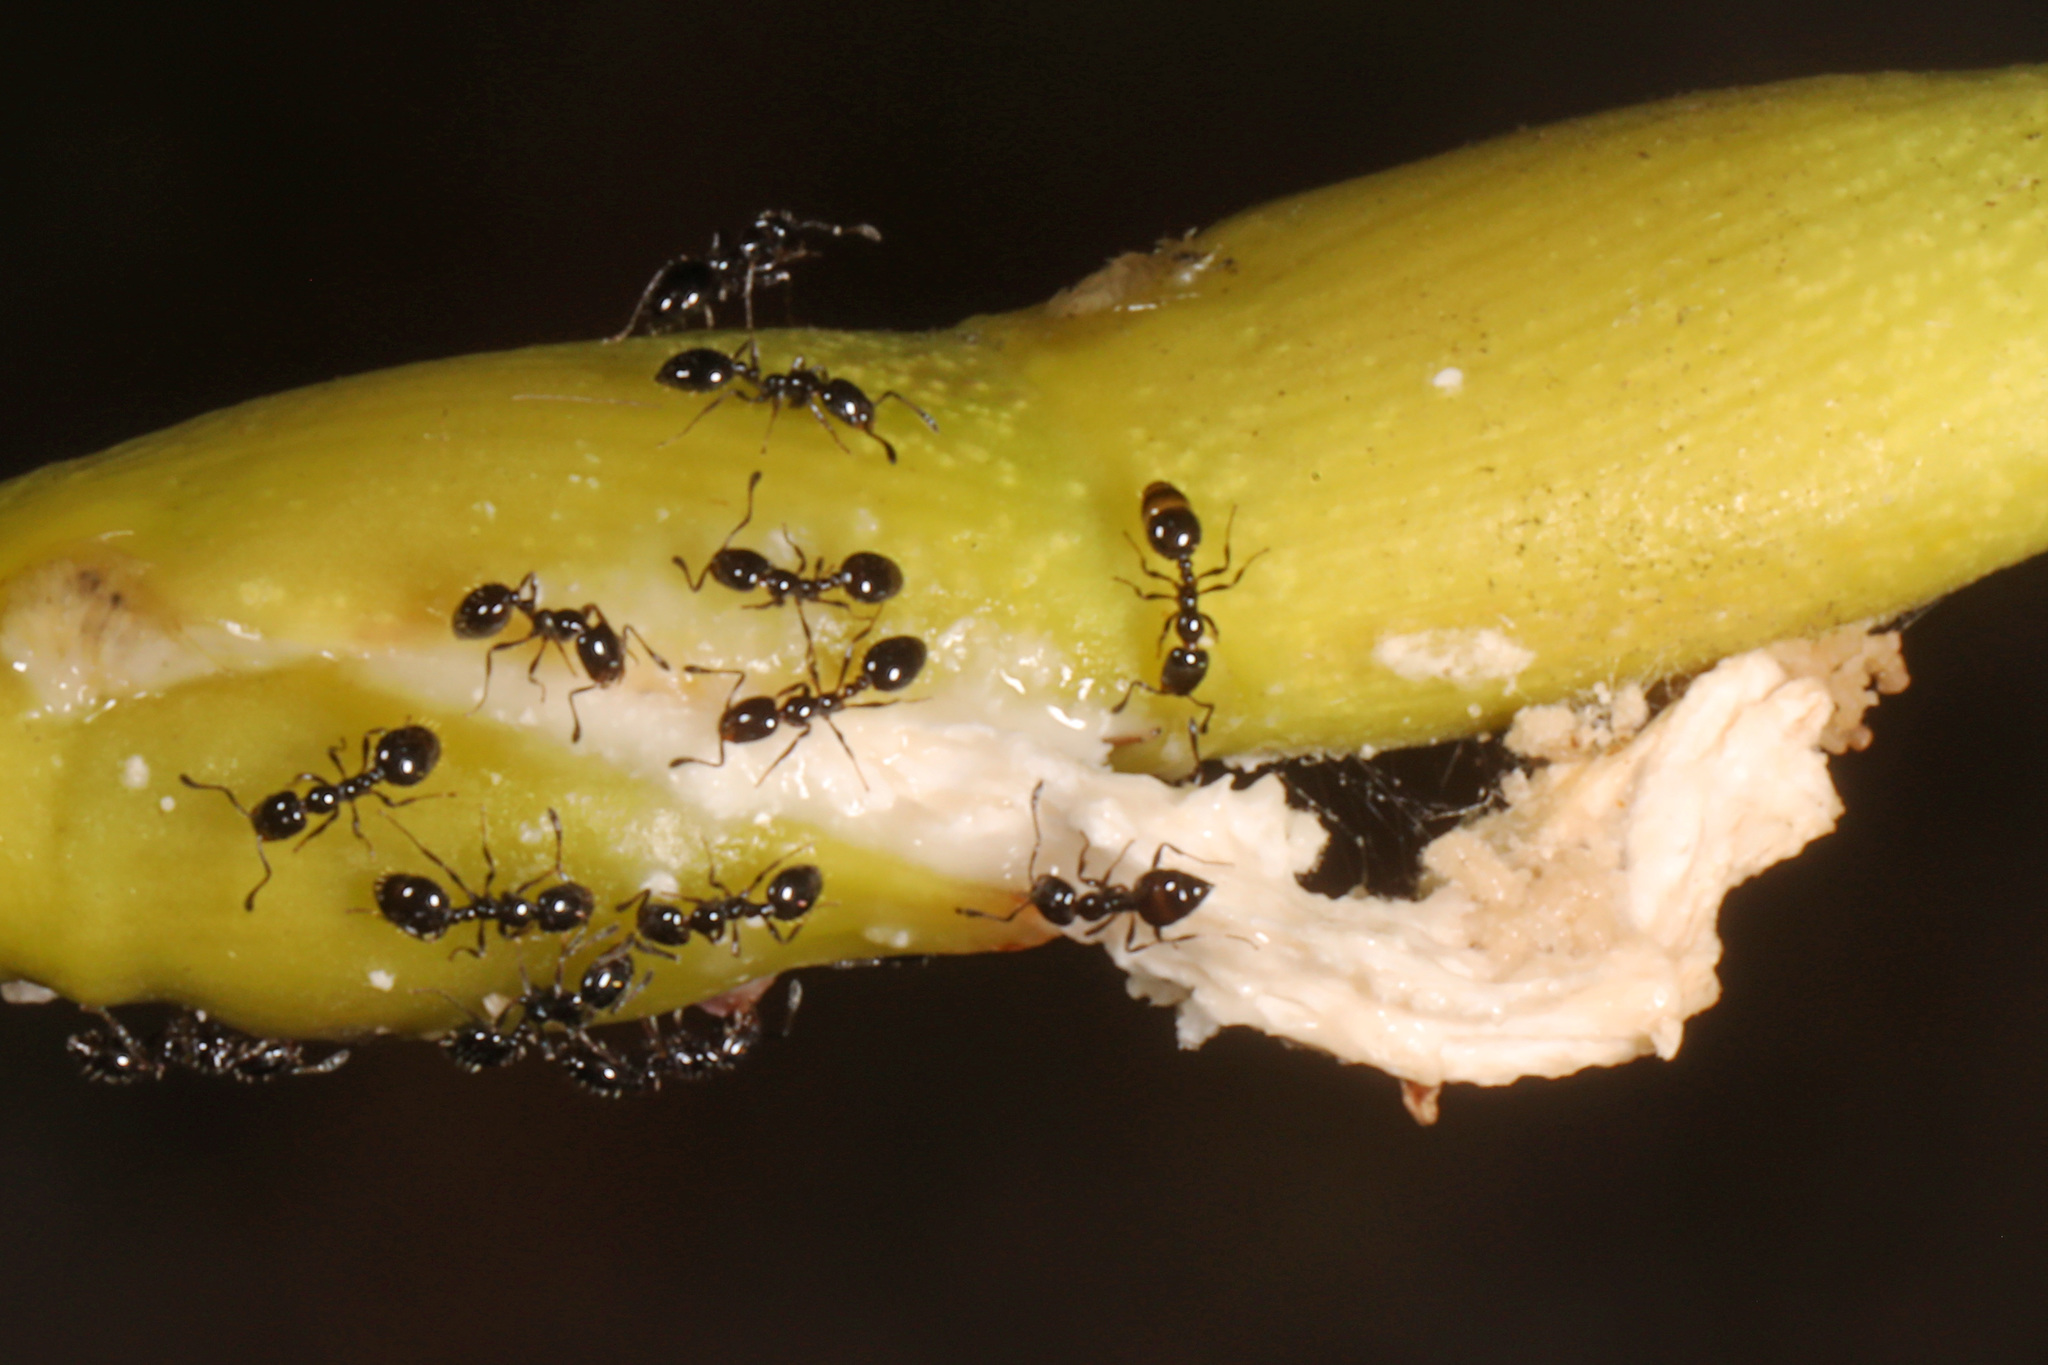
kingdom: Animalia
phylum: Arthropoda
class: Insecta
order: Hymenoptera
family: Formicidae
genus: Monomorium
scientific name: Monomorium minimum
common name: Little black ant
